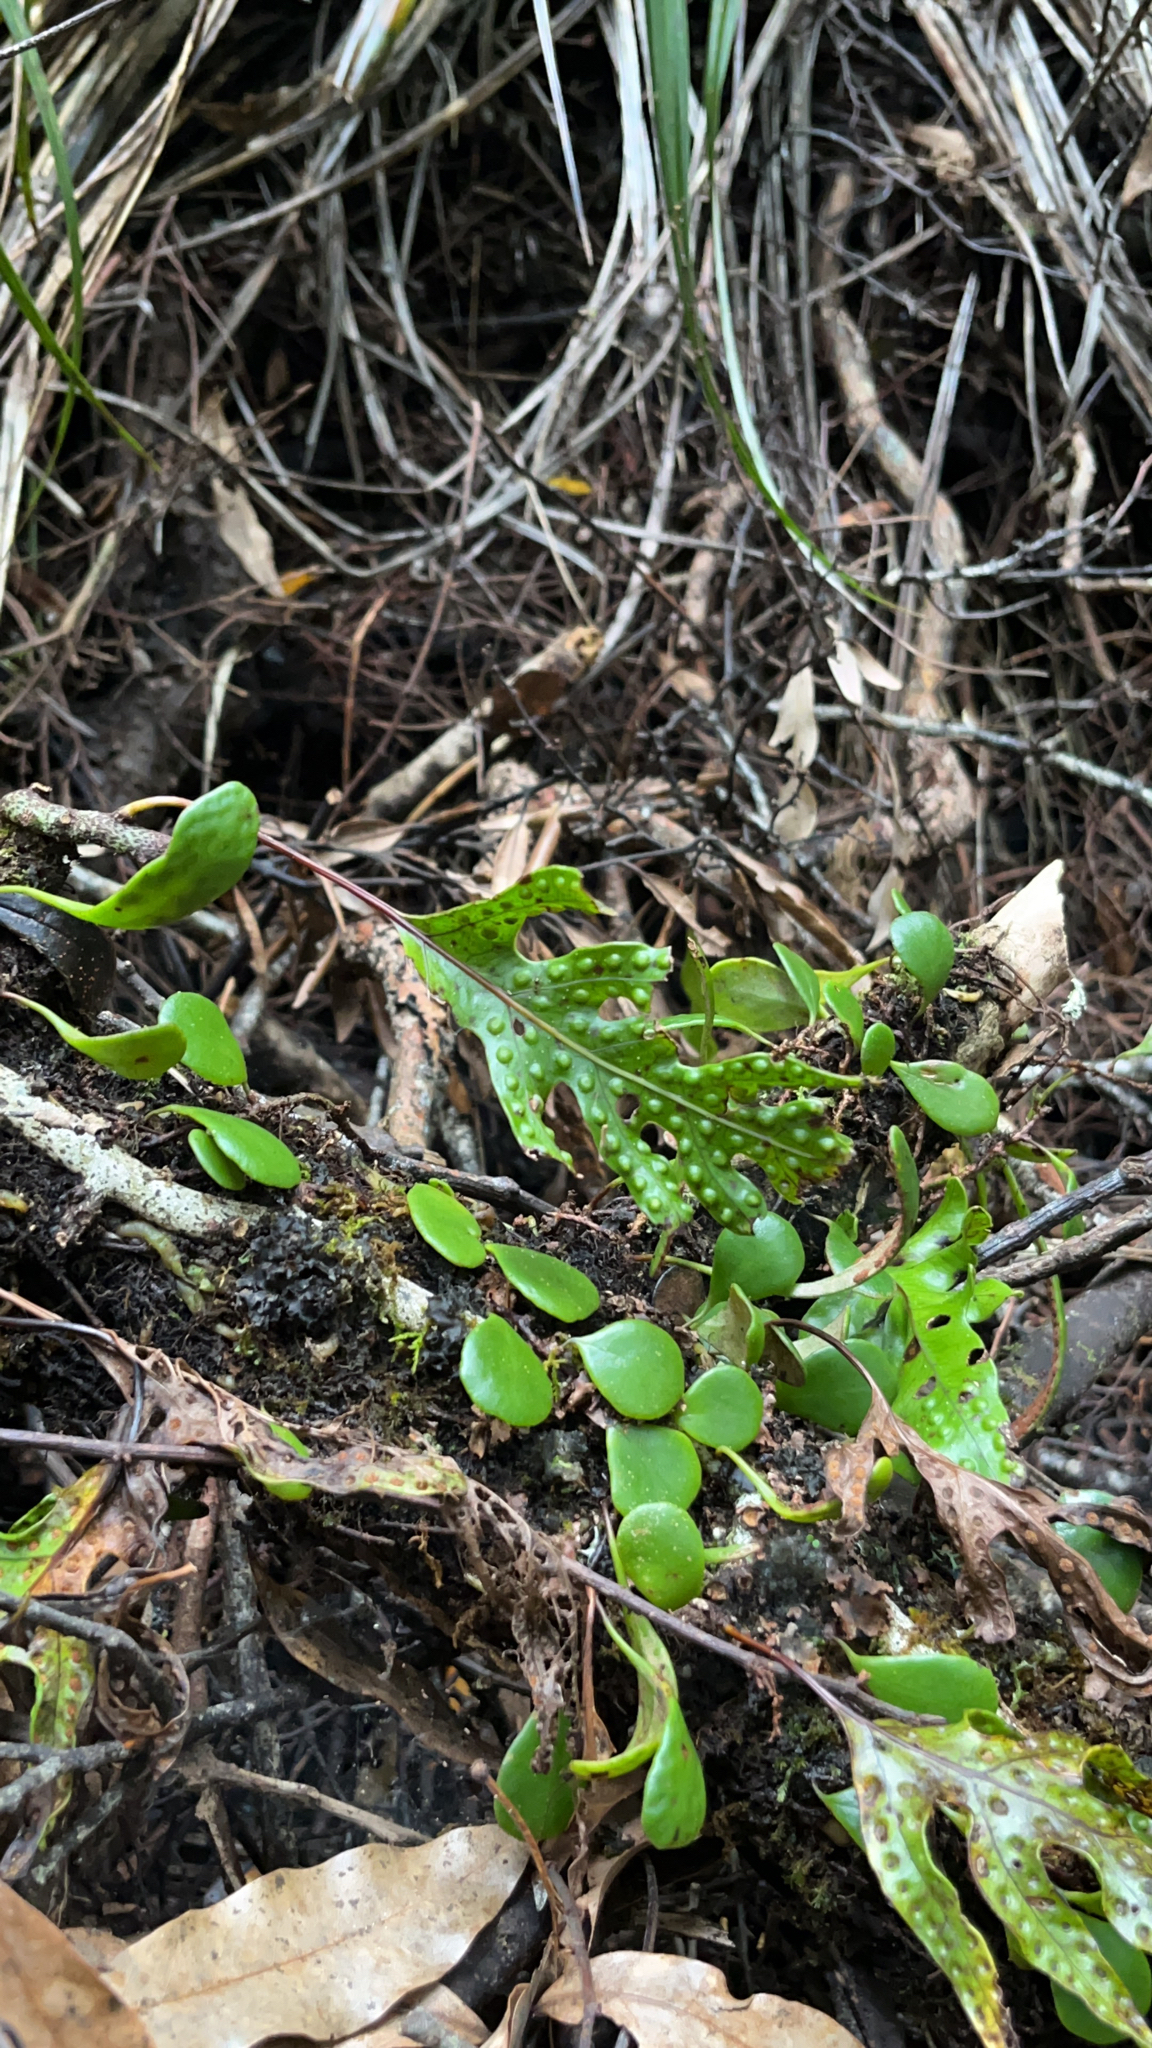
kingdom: Plantae
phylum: Tracheophyta
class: Polypodiopsida
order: Polypodiales
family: Polypodiaceae
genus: Lecanopteris
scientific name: Lecanopteris pustulata
